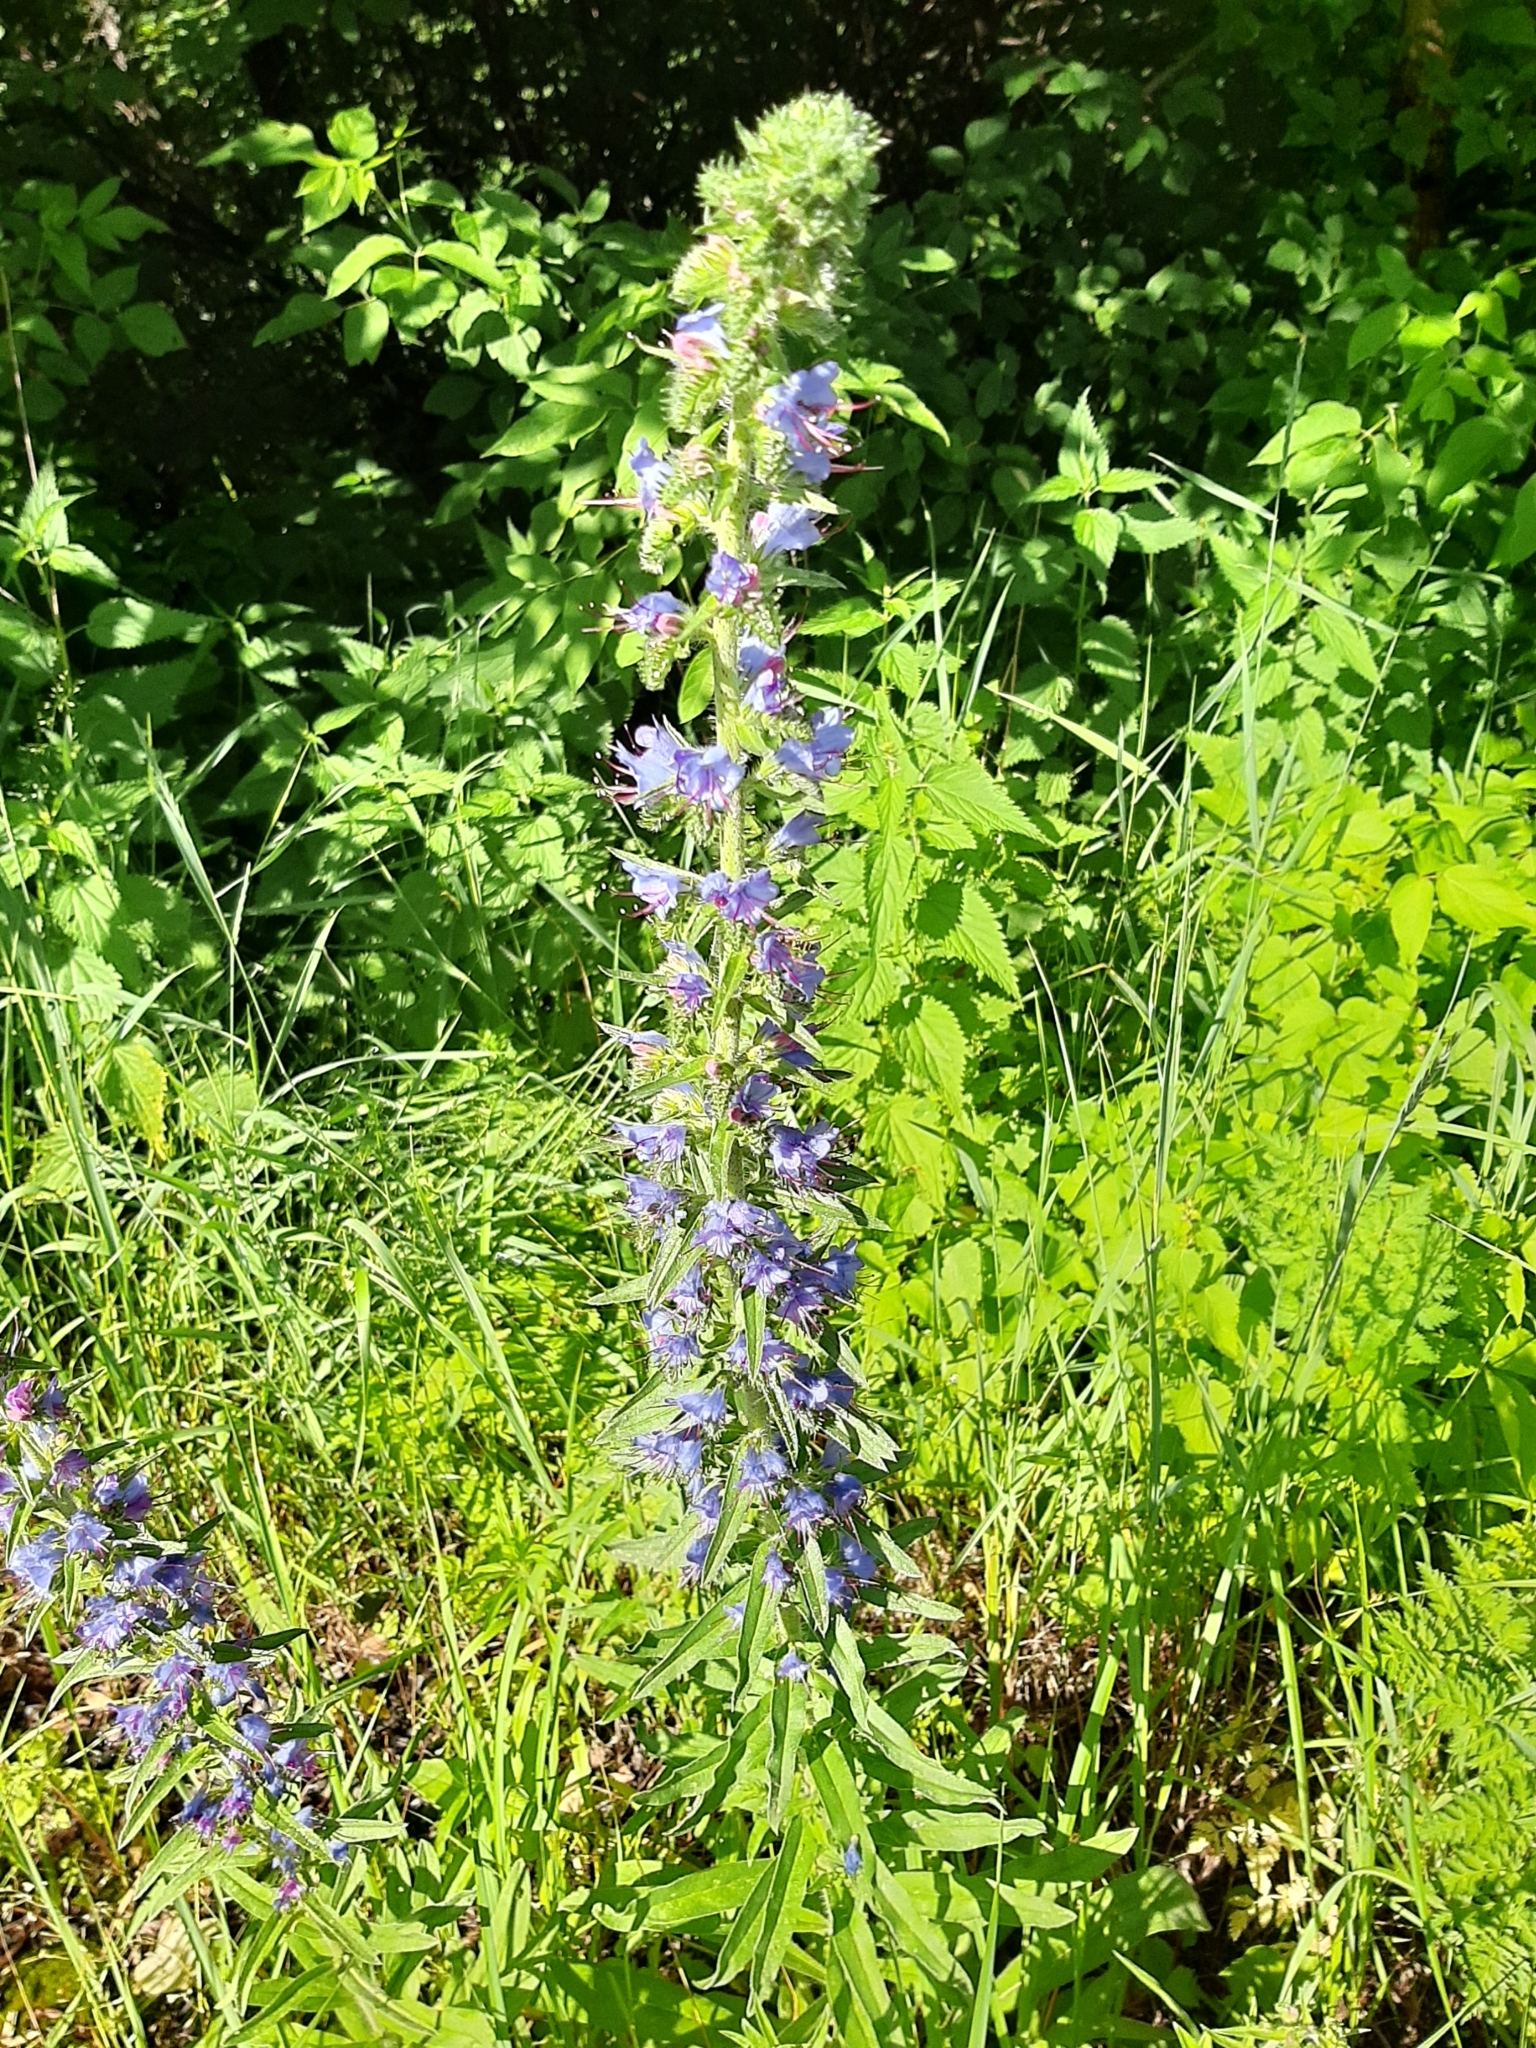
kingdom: Plantae
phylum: Tracheophyta
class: Magnoliopsida
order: Boraginales
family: Boraginaceae
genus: Echium
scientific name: Echium vulgare
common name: Common viper's bugloss
